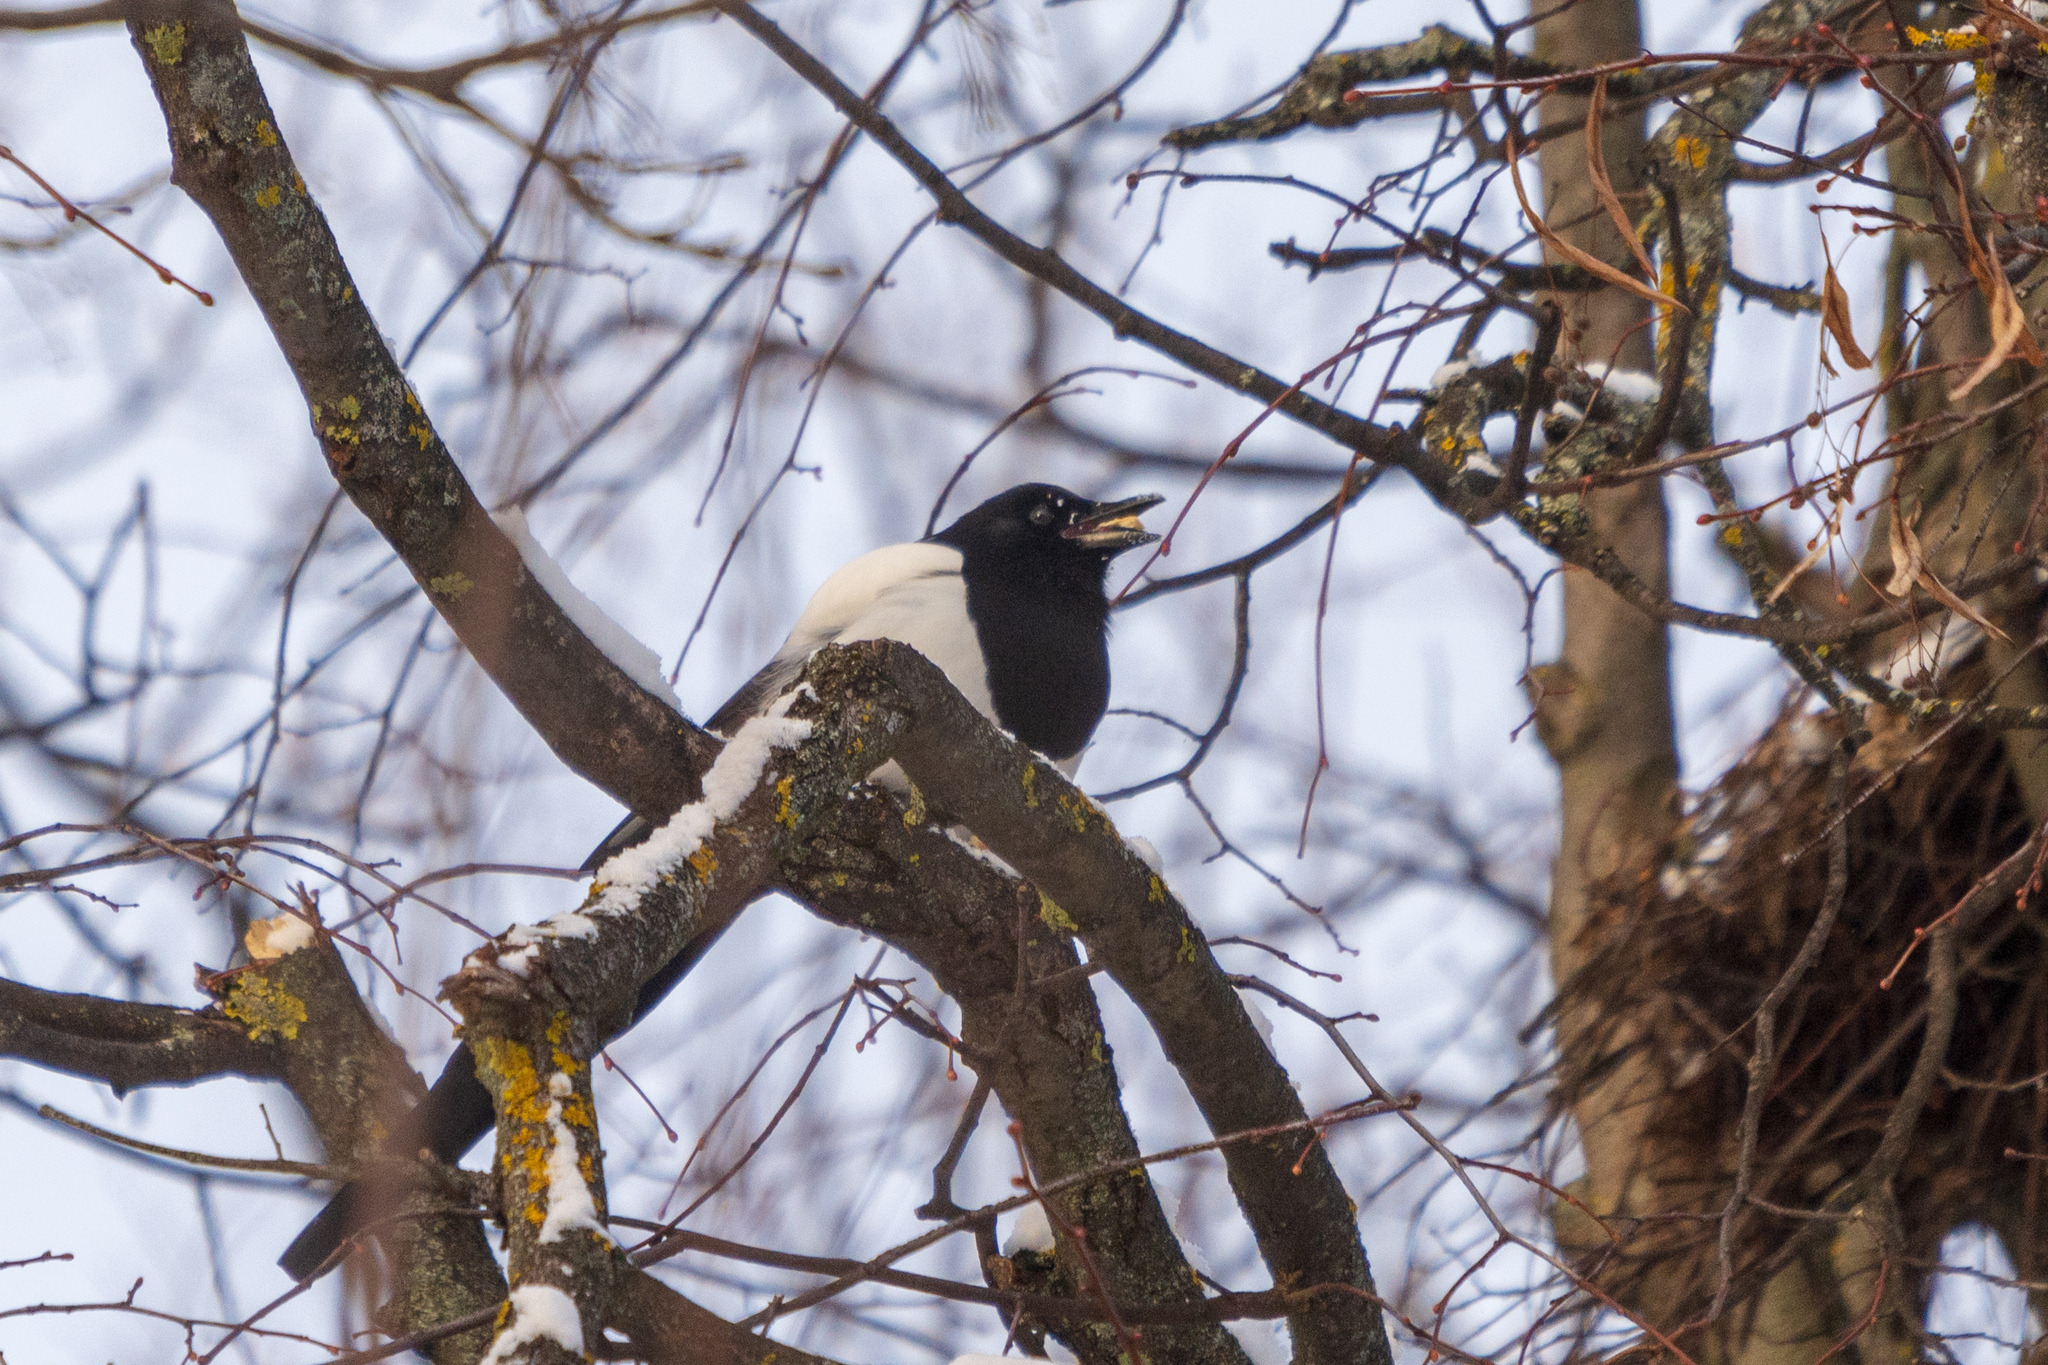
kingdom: Animalia
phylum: Chordata
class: Aves
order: Passeriformes
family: Corvidae
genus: Pica
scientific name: Pica pica
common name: Eurasian magpie
